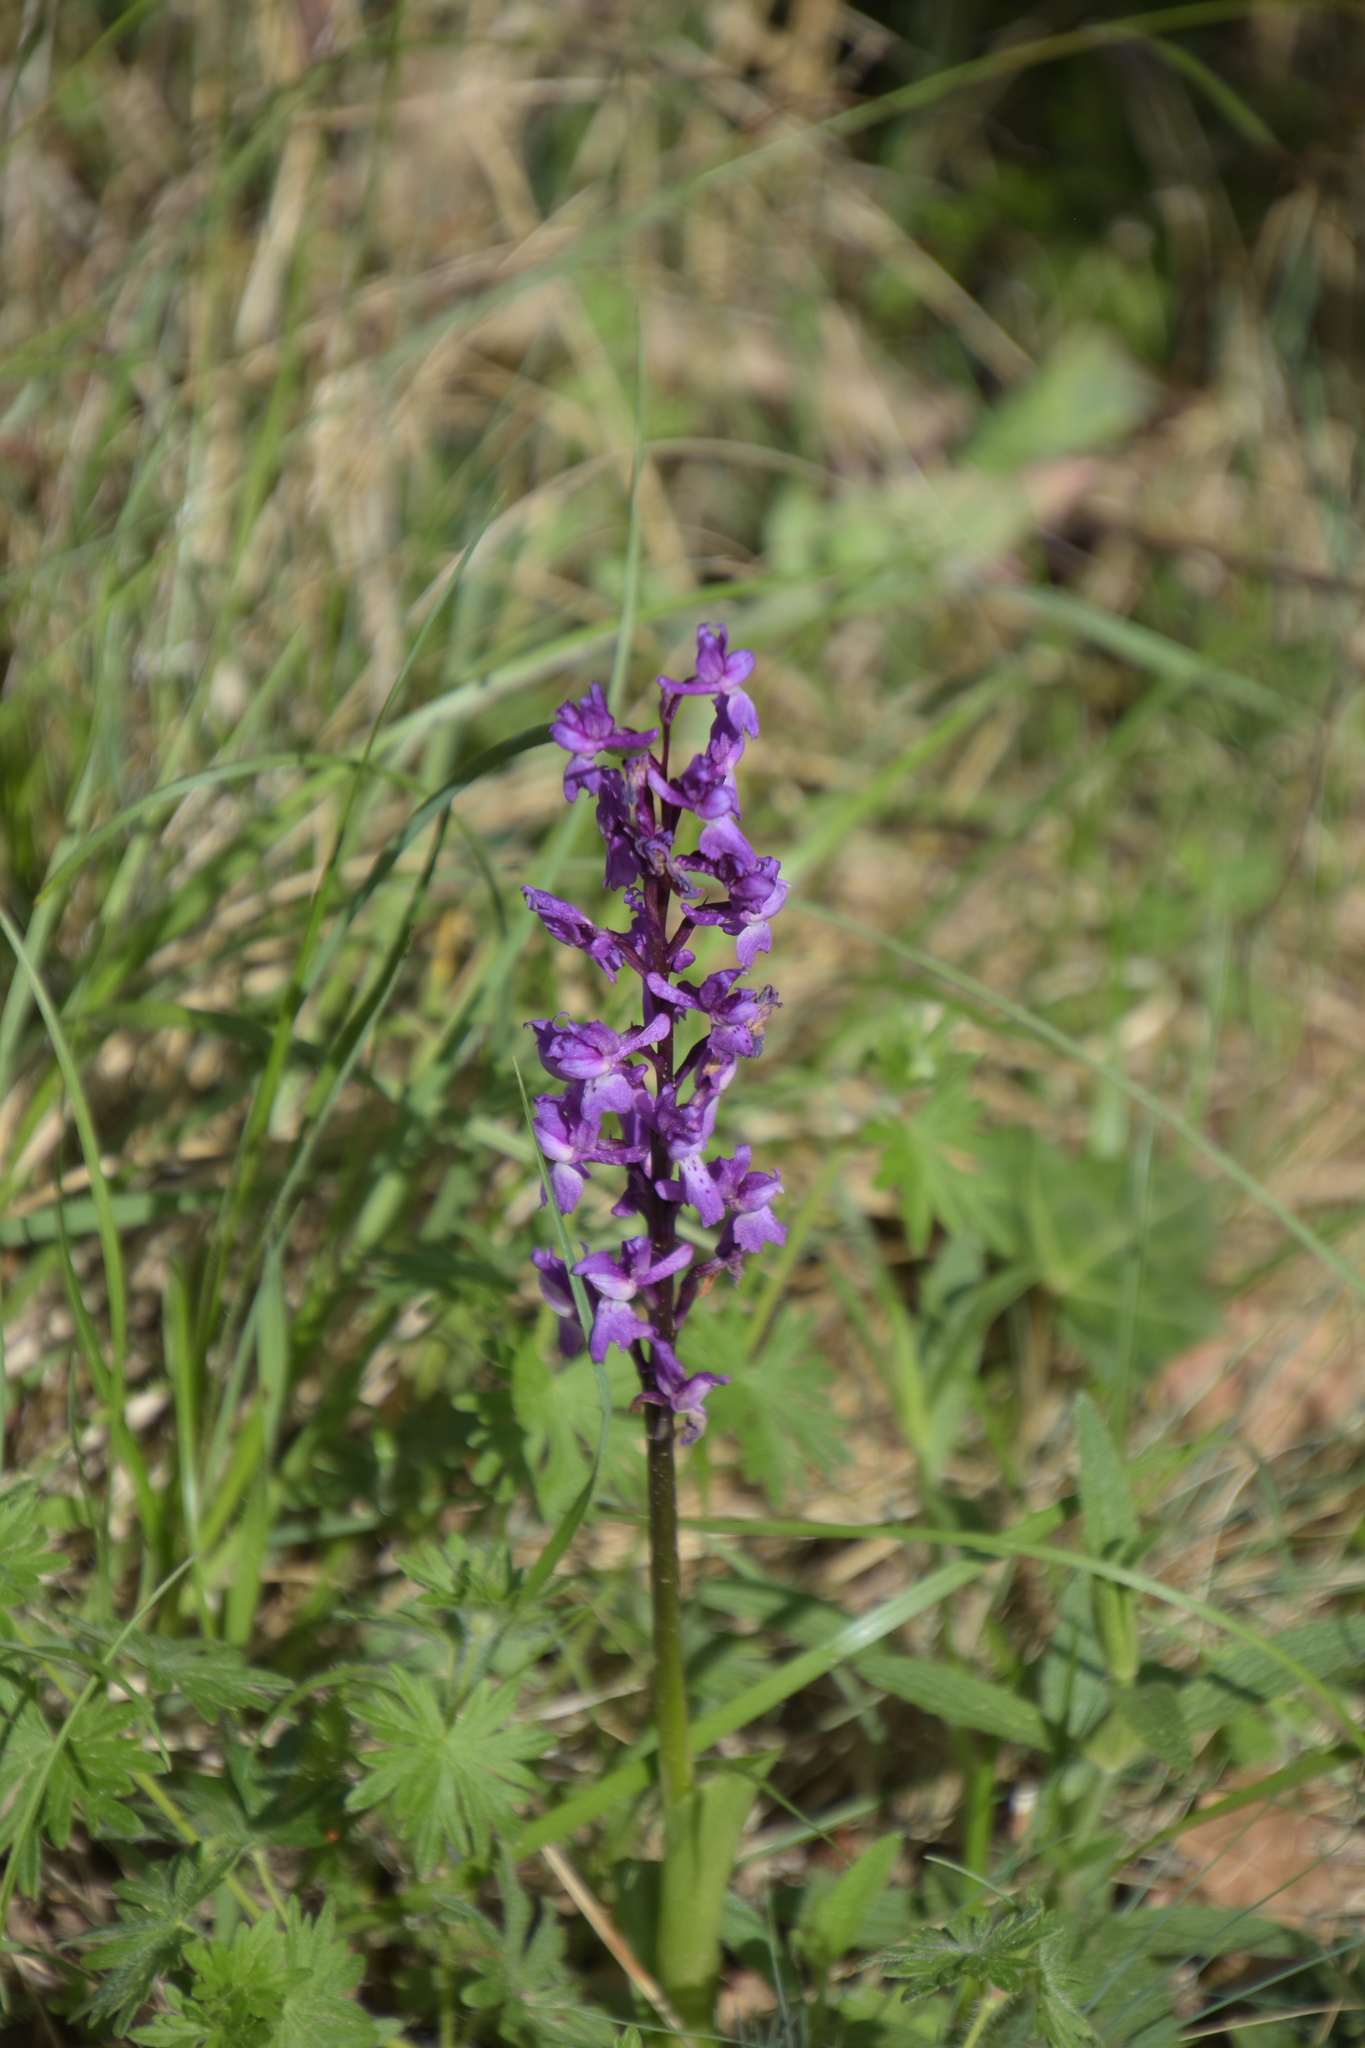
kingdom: Plantae
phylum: Tracheophyta
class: Liliopsida
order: Asparagales
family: Orchidaceae
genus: Orchis
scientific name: Orchis mascula
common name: Early-purple orchid
